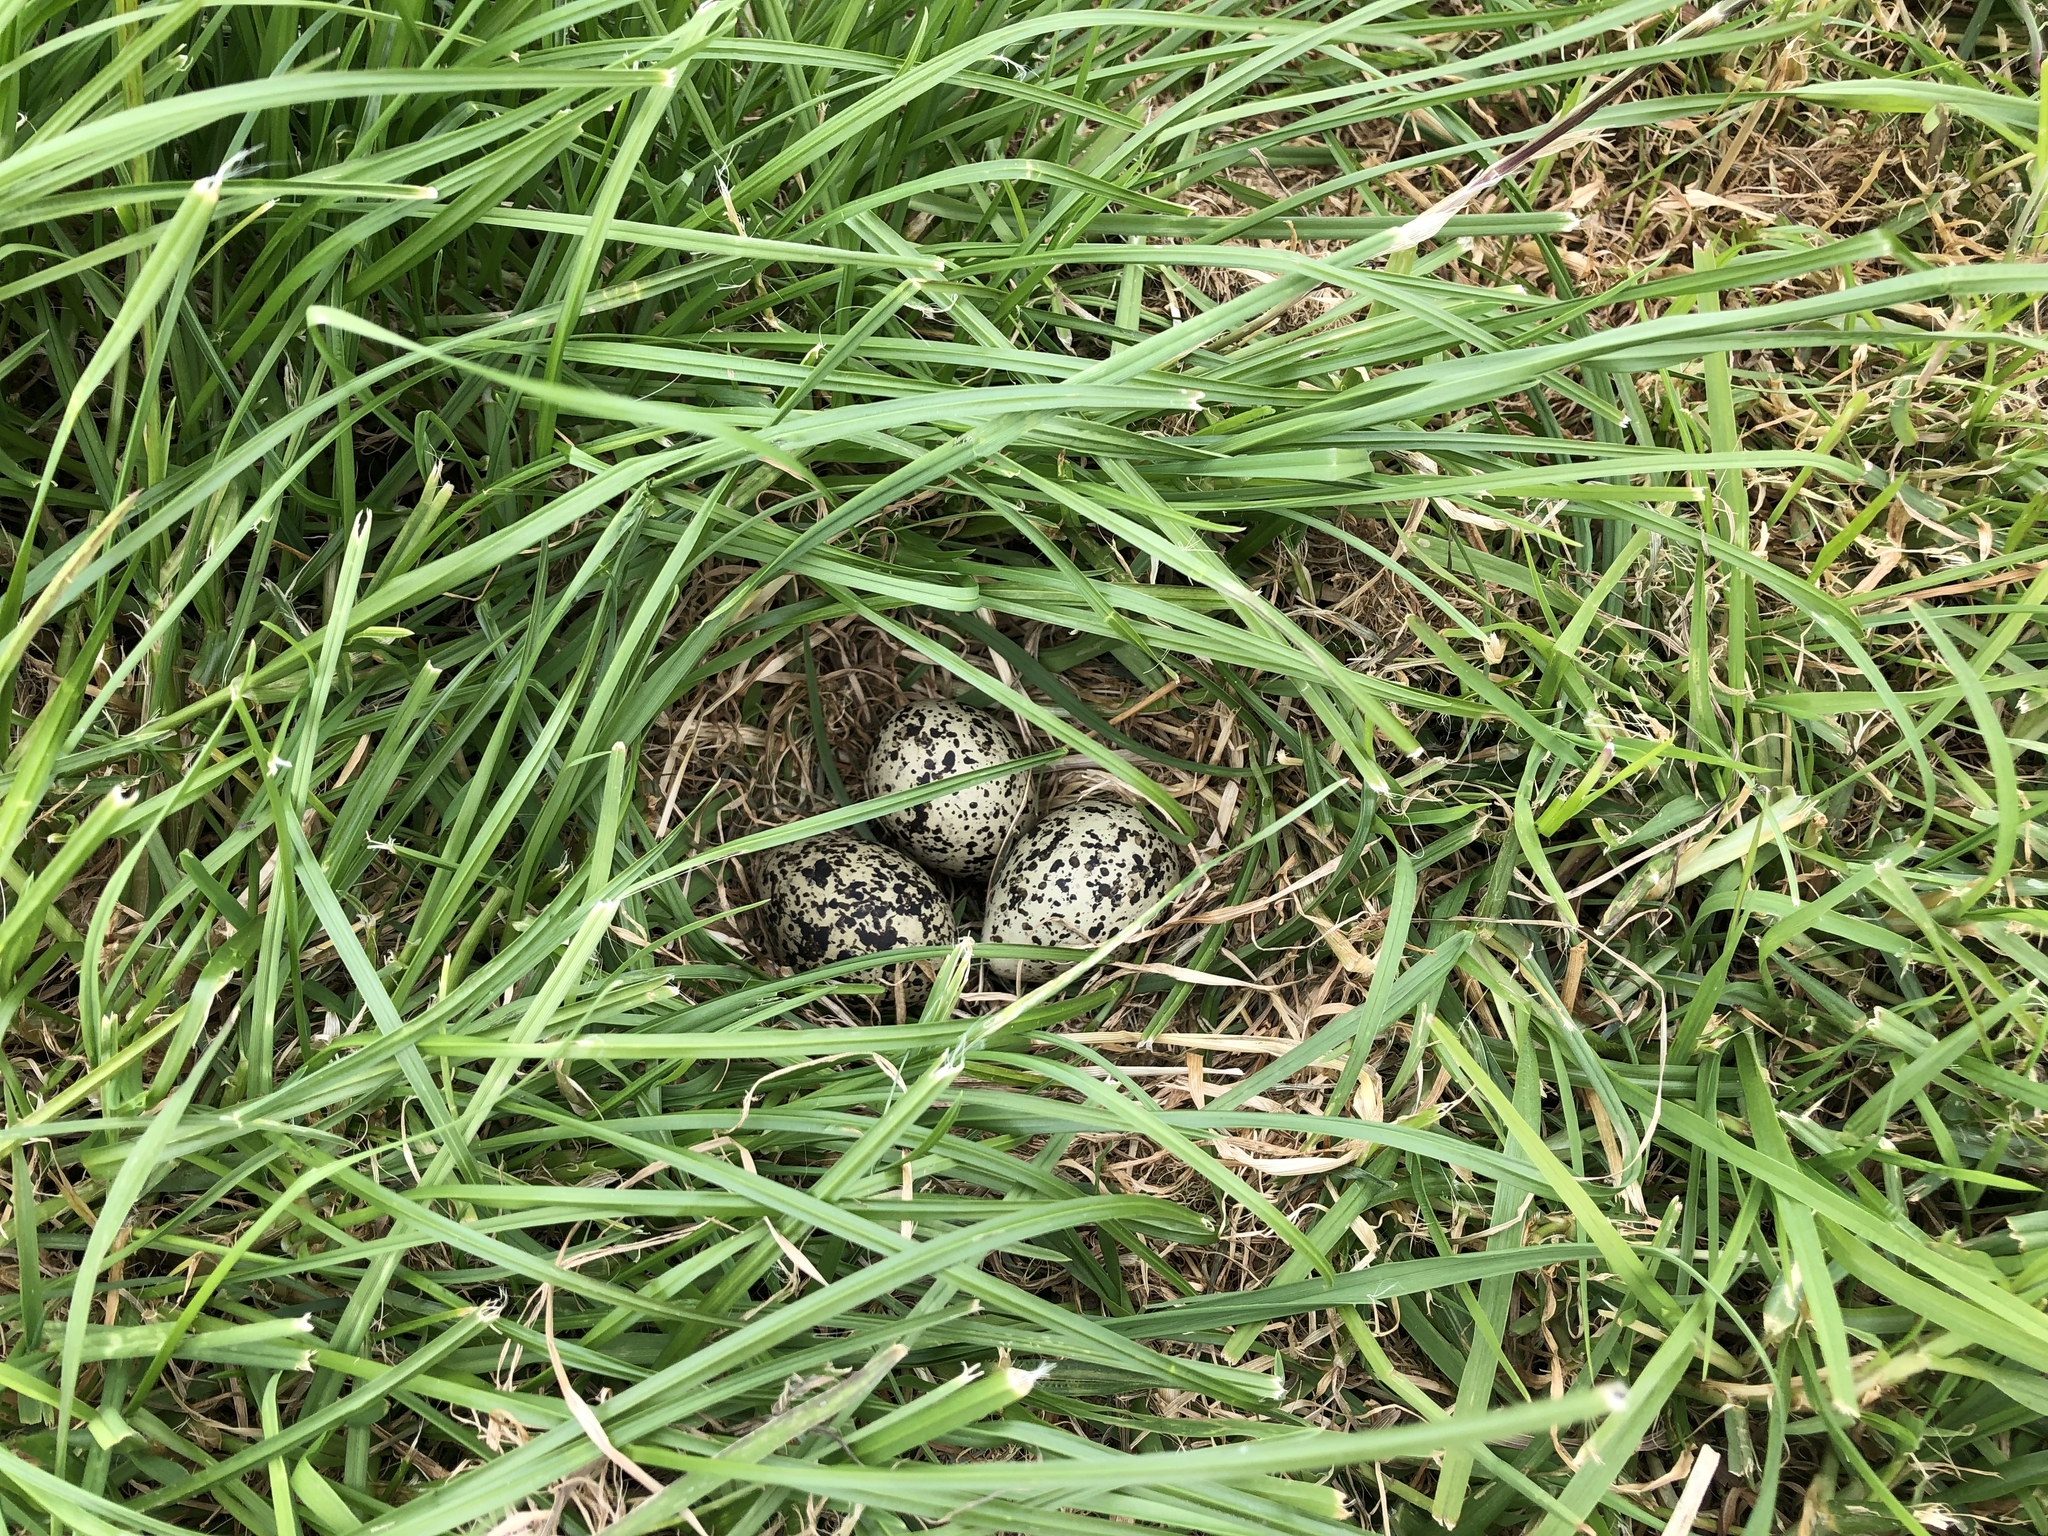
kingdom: Animalia
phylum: Chordata
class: Aves
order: Charadriiformes
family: Charadriidae
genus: Anarhynchus
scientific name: Anarhynchus
